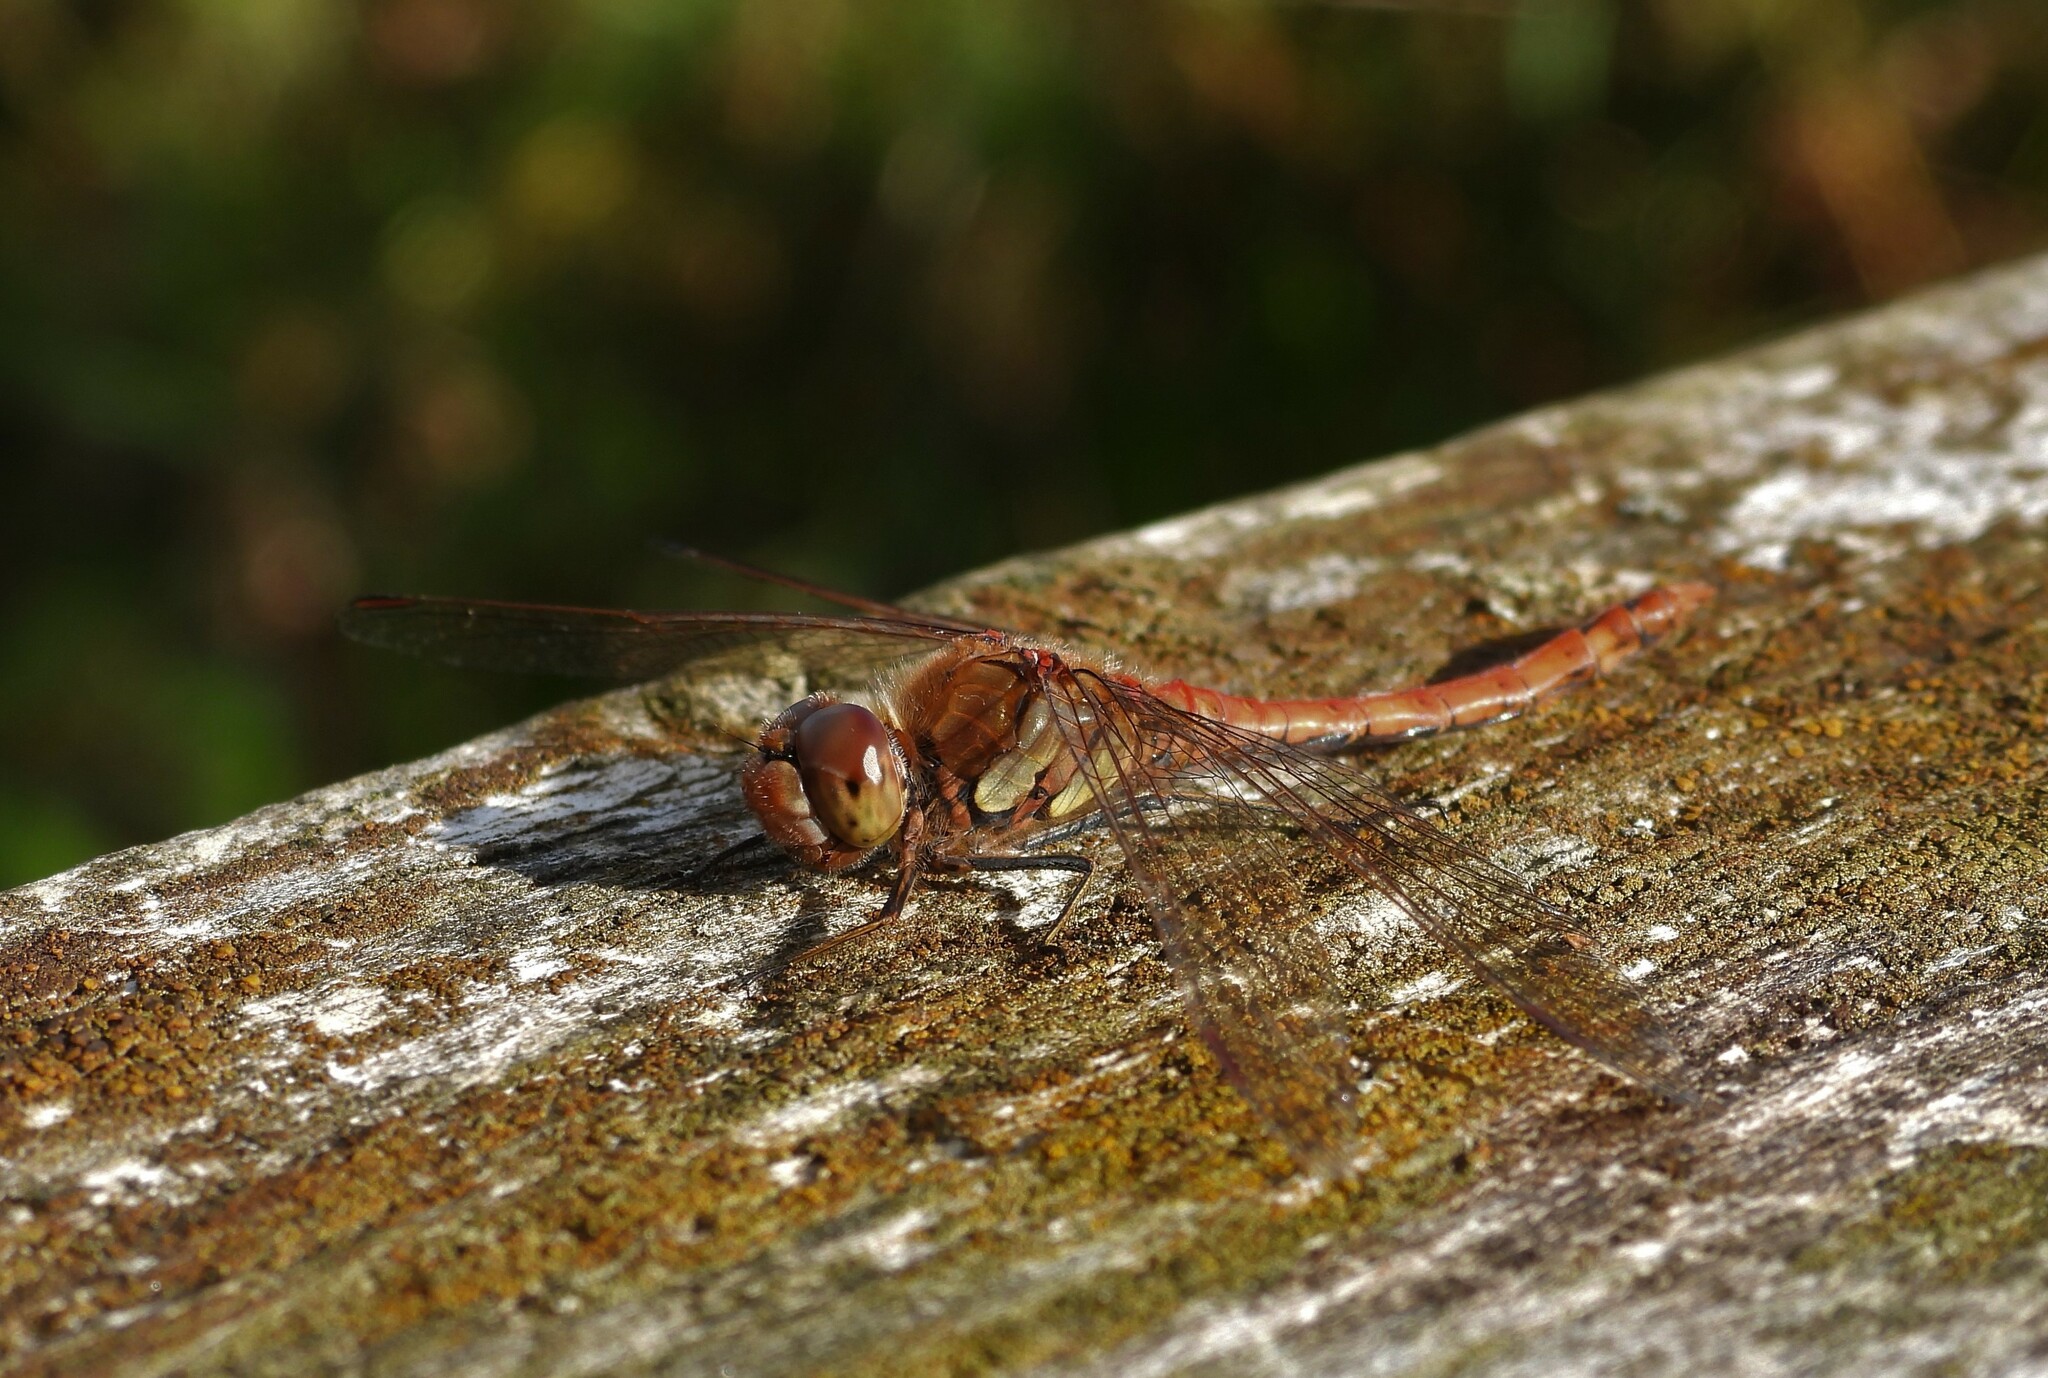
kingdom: Animalia
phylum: Arthropoda
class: Insecta
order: Odonata
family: Libellulidae
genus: Sympetrum
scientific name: Sympetrum striolatum
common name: Common darter
